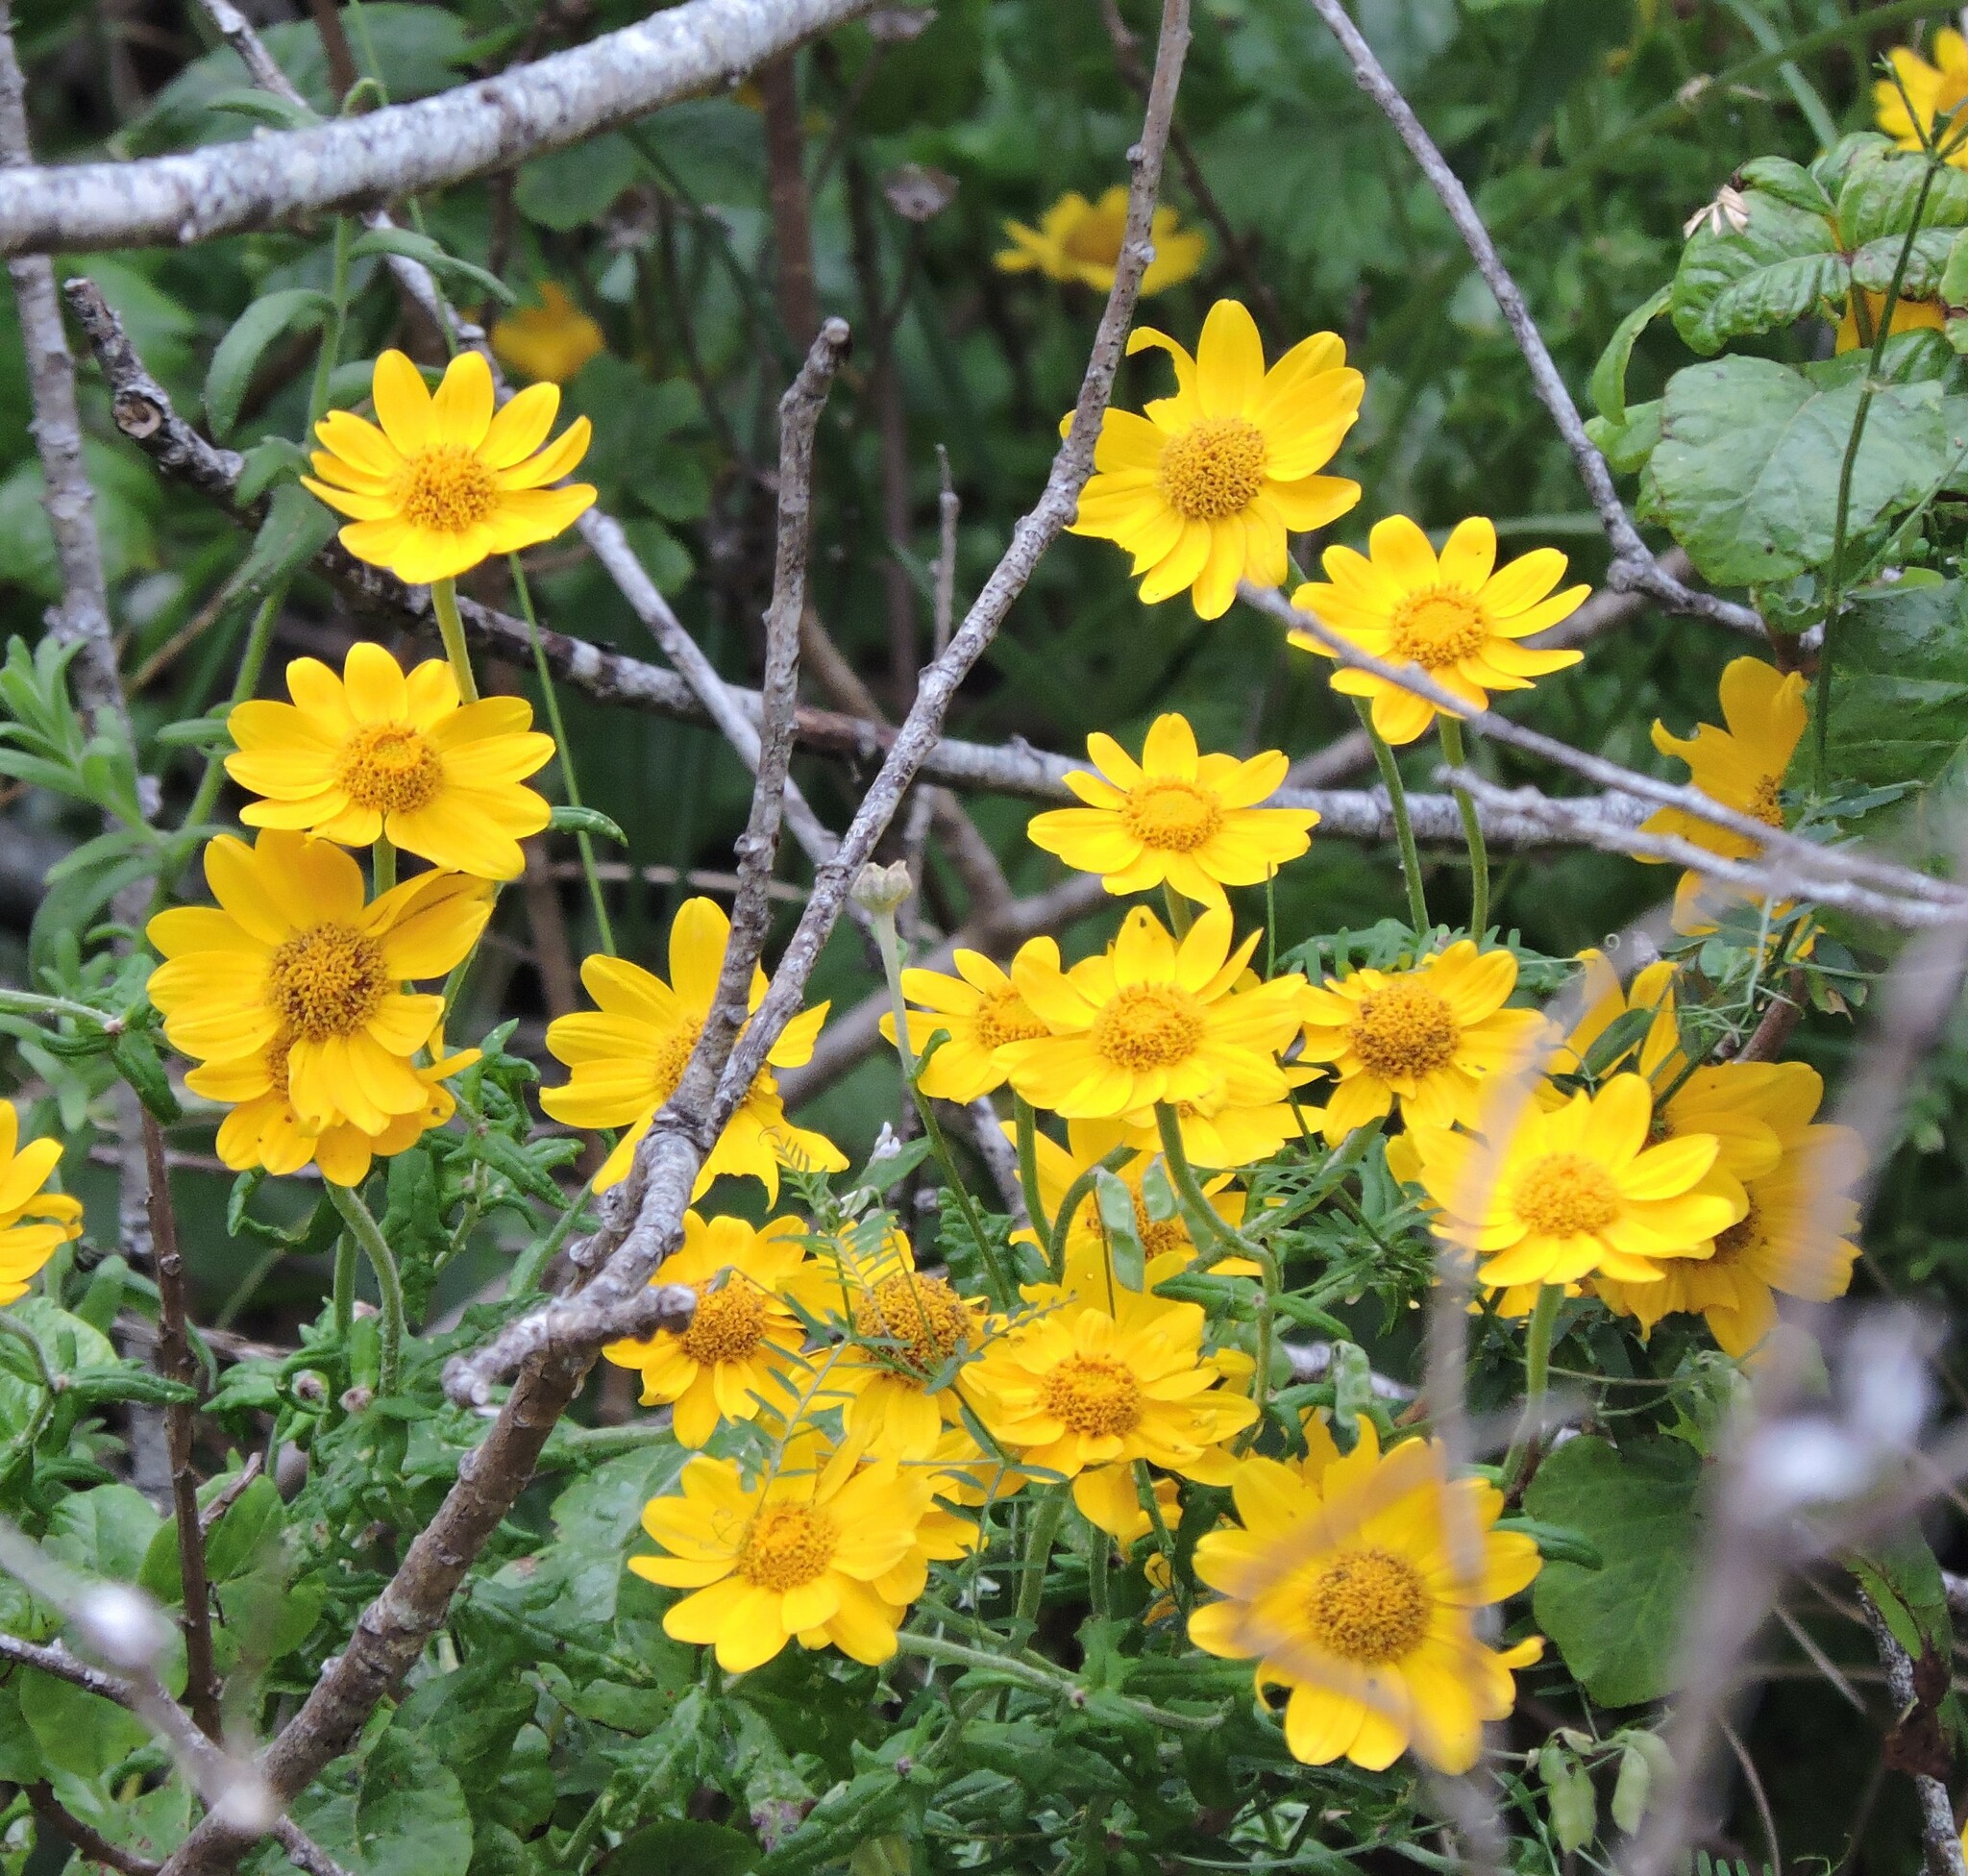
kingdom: Plantae
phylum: Tracheophyta
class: Magnoliopsida
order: Asterales
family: Asteraceae
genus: Eriophyllum
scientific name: Eriophyllum lanatum
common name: Common woolly-sunflower
